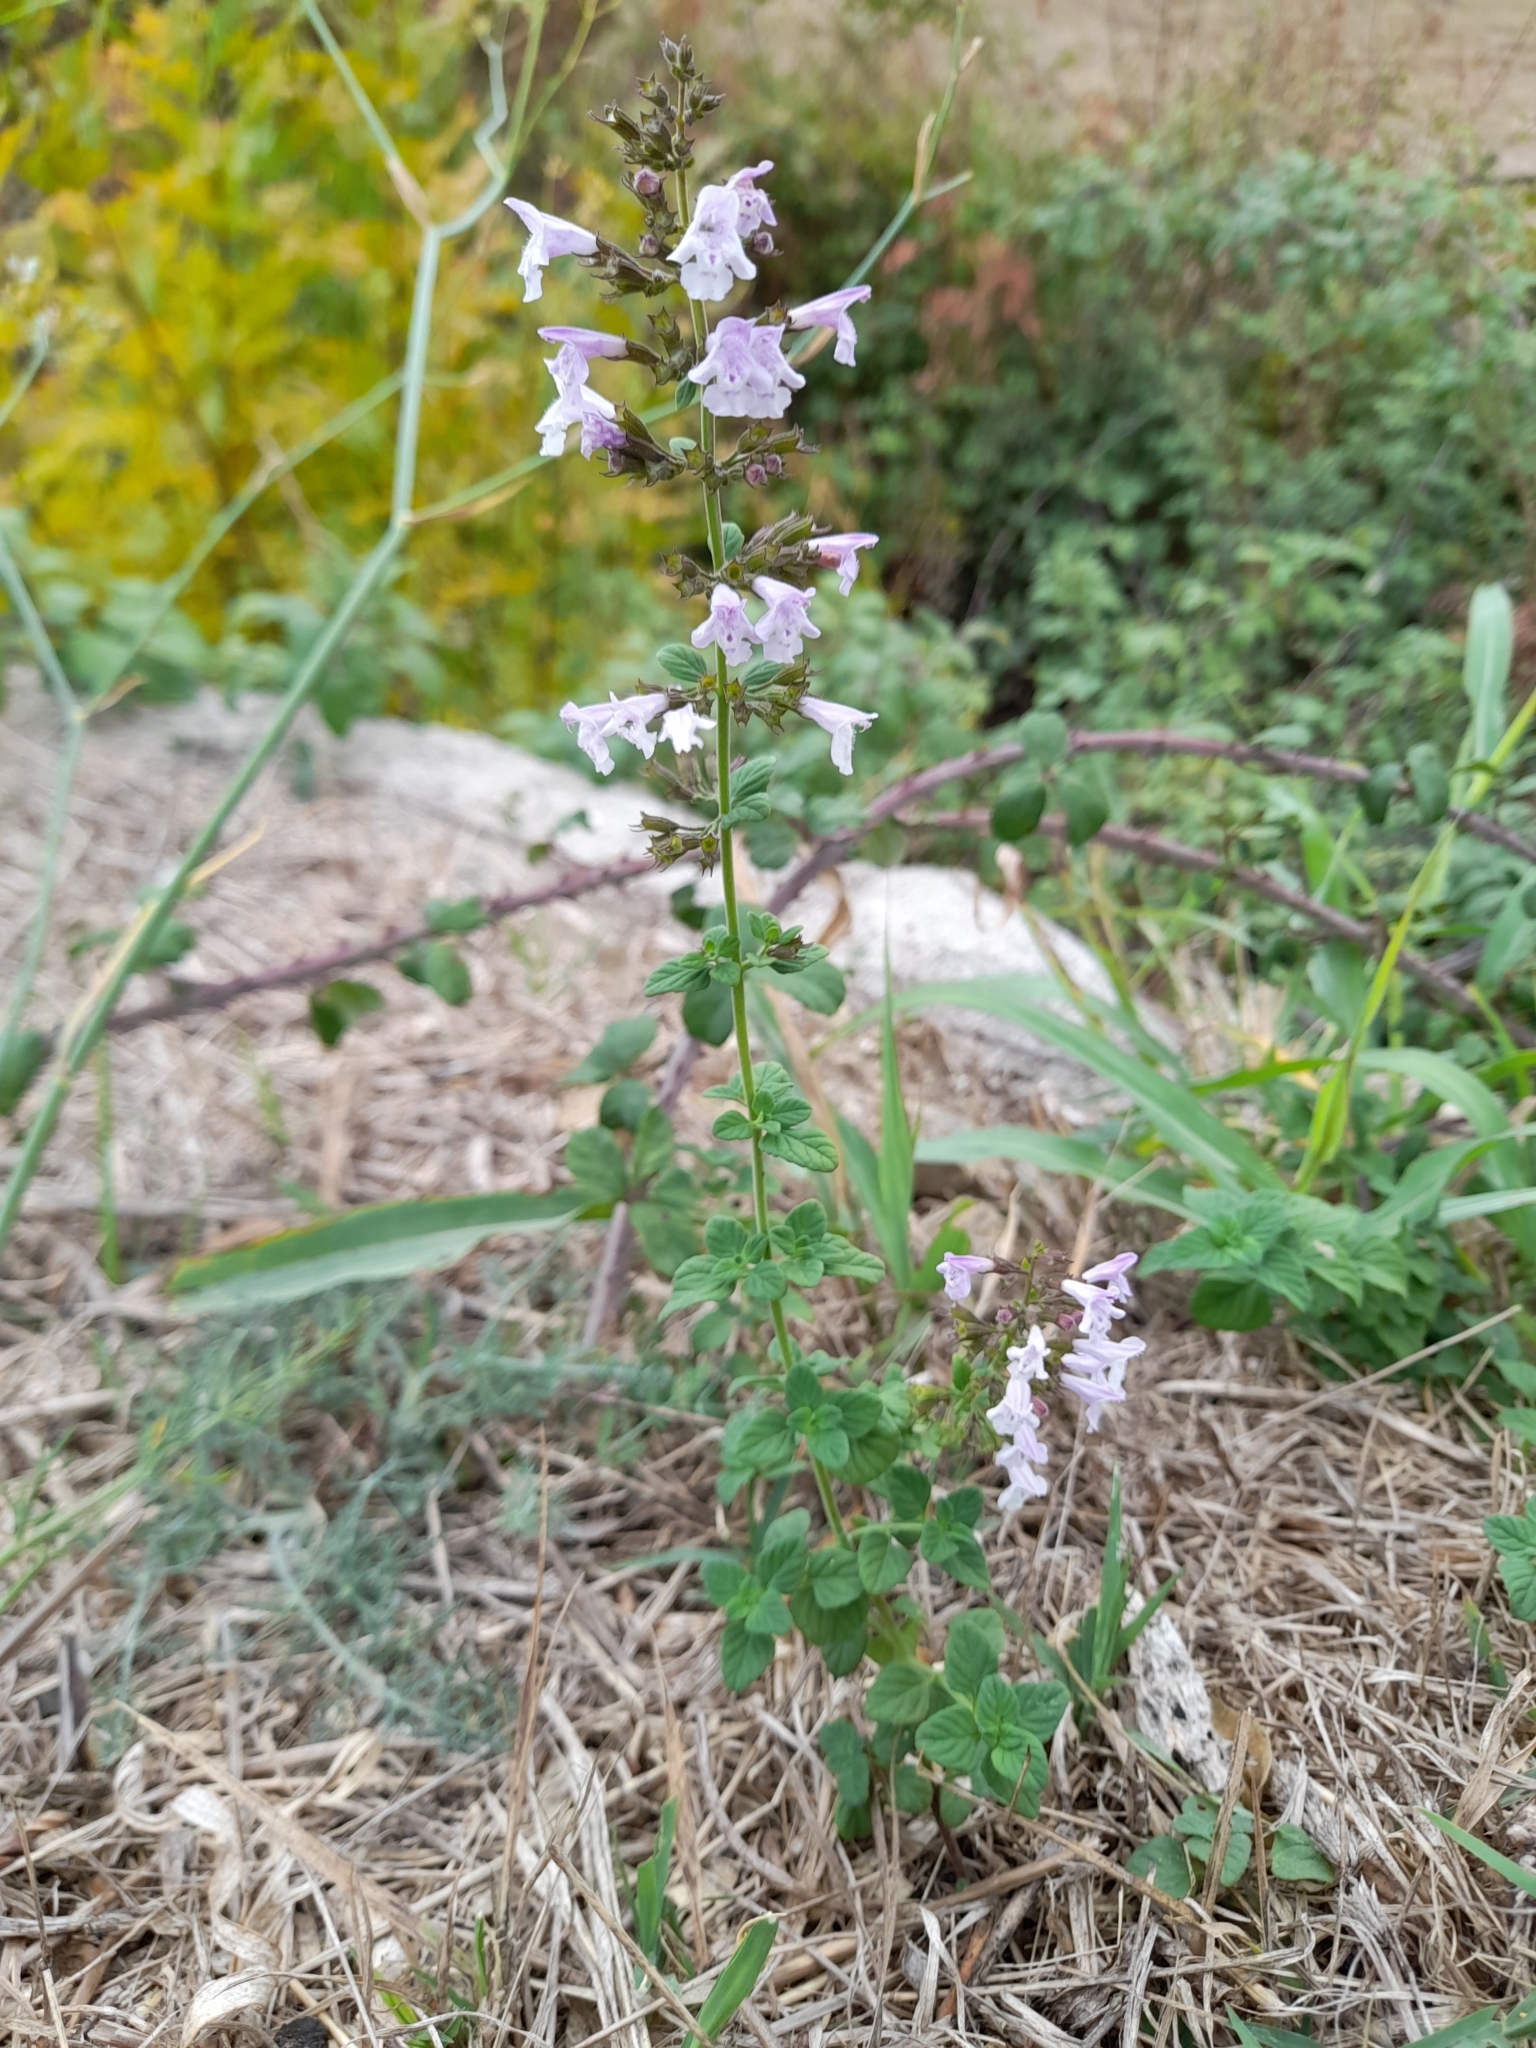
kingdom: Plantae
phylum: Tracheophyta
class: Magnoliopsida
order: Lamiales
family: Lamiaceae
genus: Clinopodium
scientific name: Clinopodium nepeta
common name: Lesser calamint
